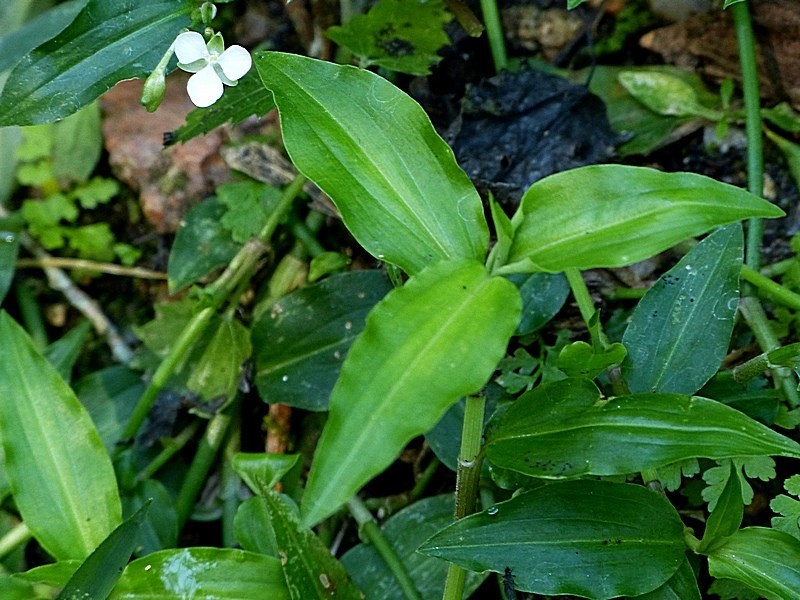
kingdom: Plantae
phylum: Tracheophyta
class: Liliopsida
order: Commelinales
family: Commelinaceae
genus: Aneilema
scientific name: Aneilema biflorum
